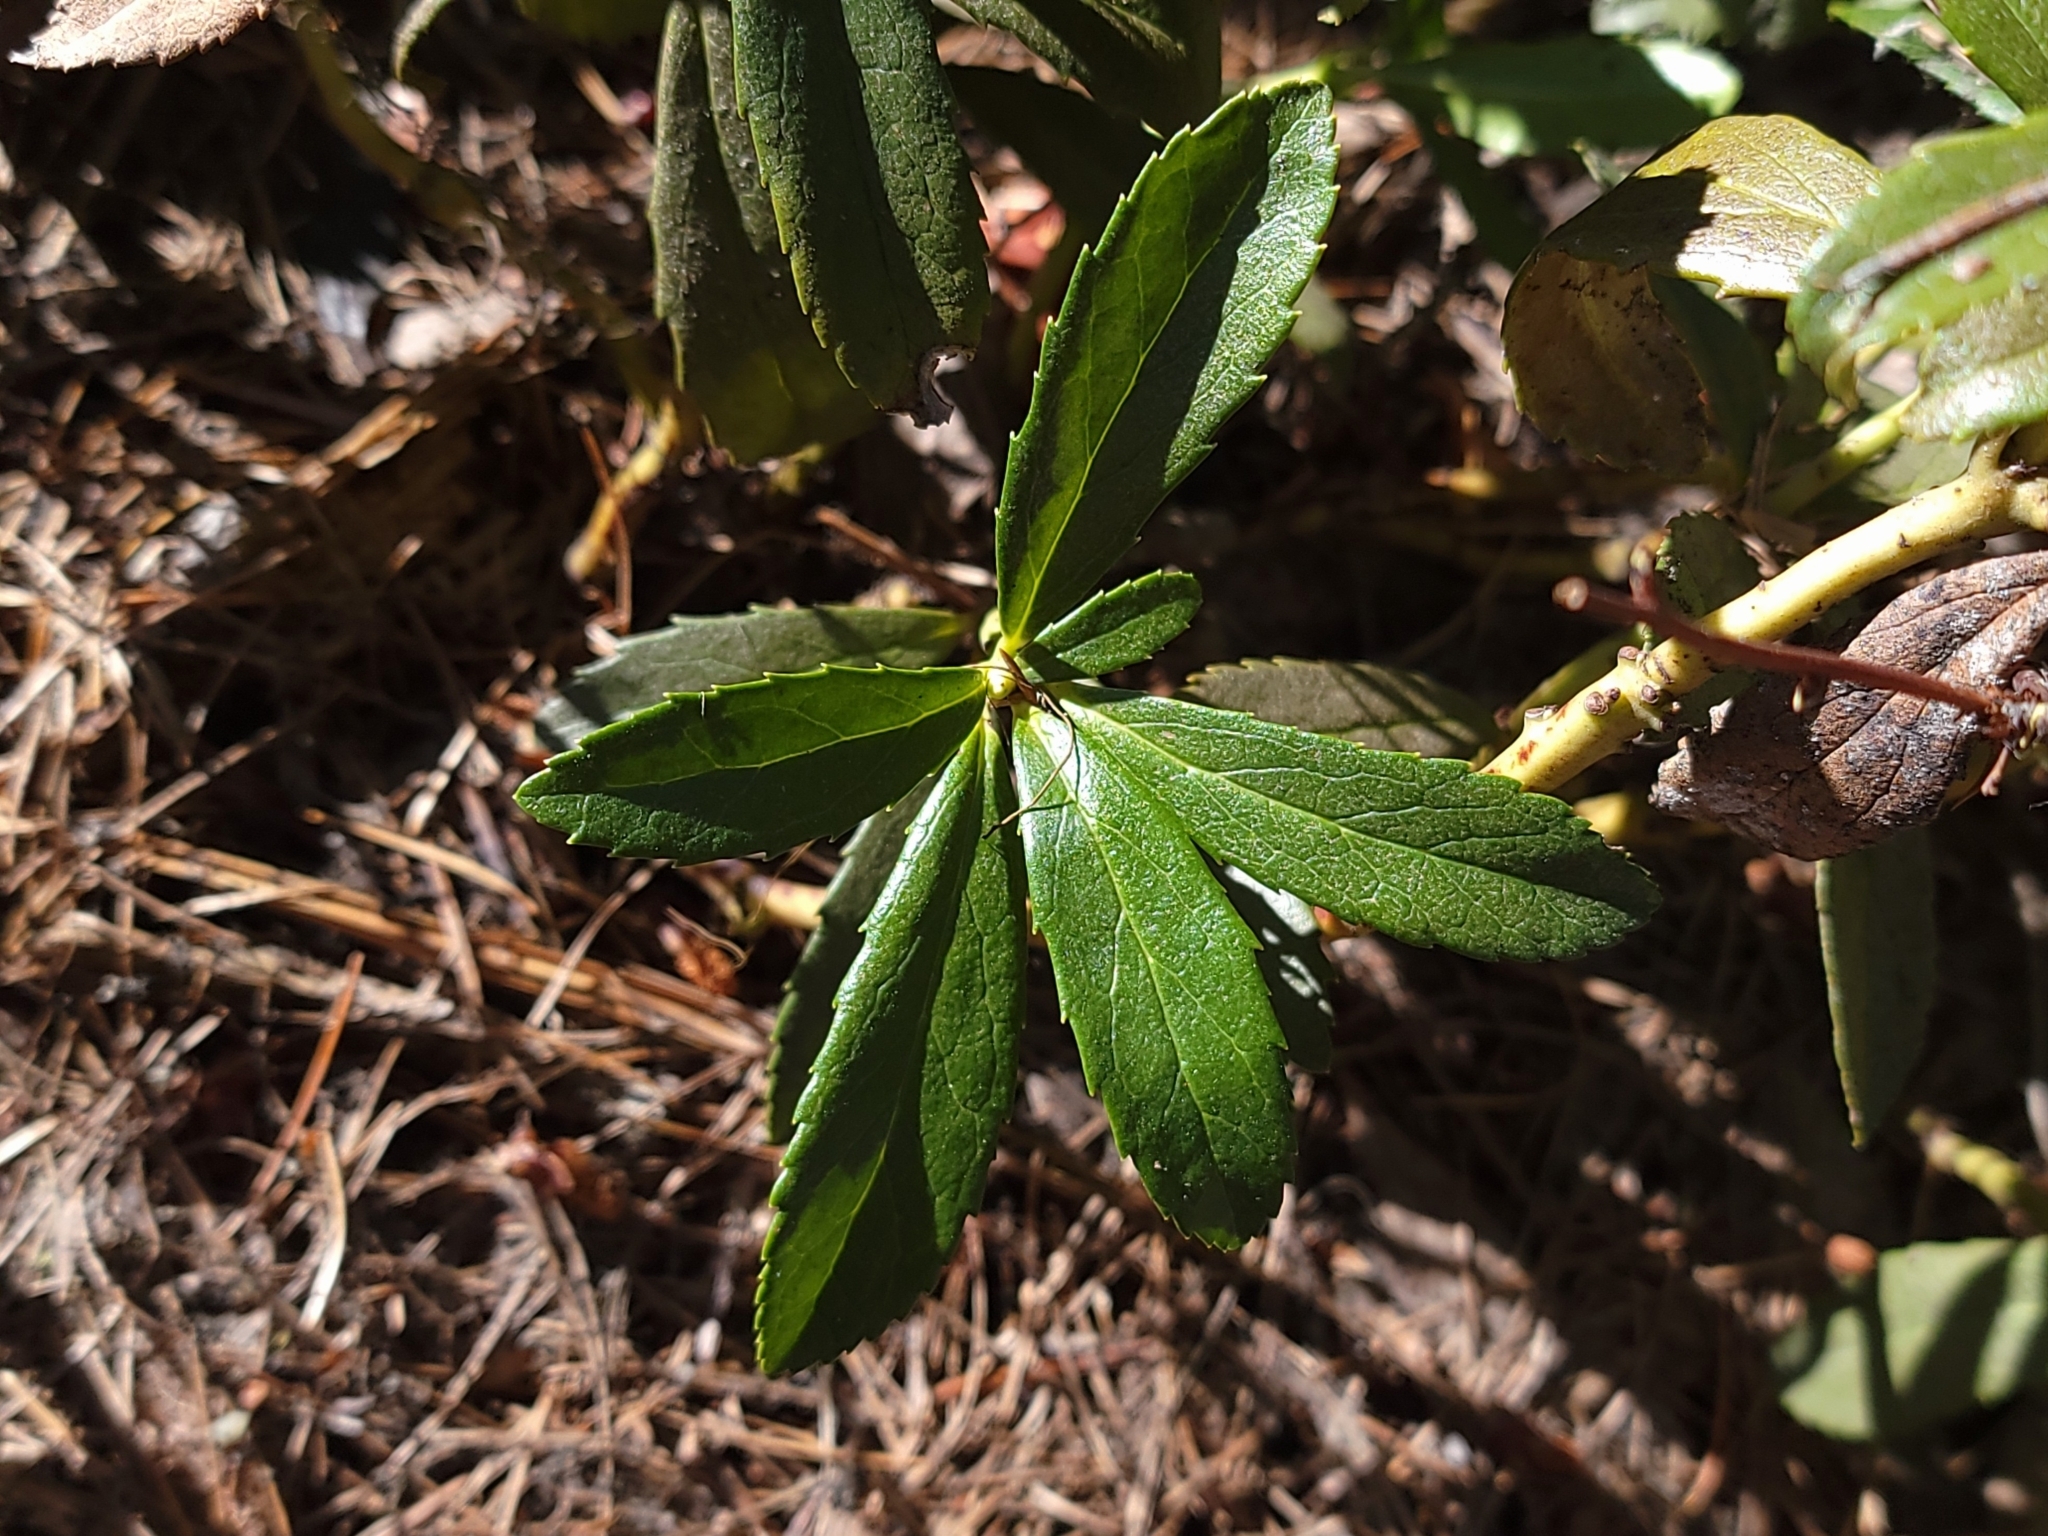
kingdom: Plantae
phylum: Tracheophyta
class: Magnoliopsida
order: Ericales
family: Ericaceae
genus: Chimaphila
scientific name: Chimaphila umbellata
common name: Pipsissewa
